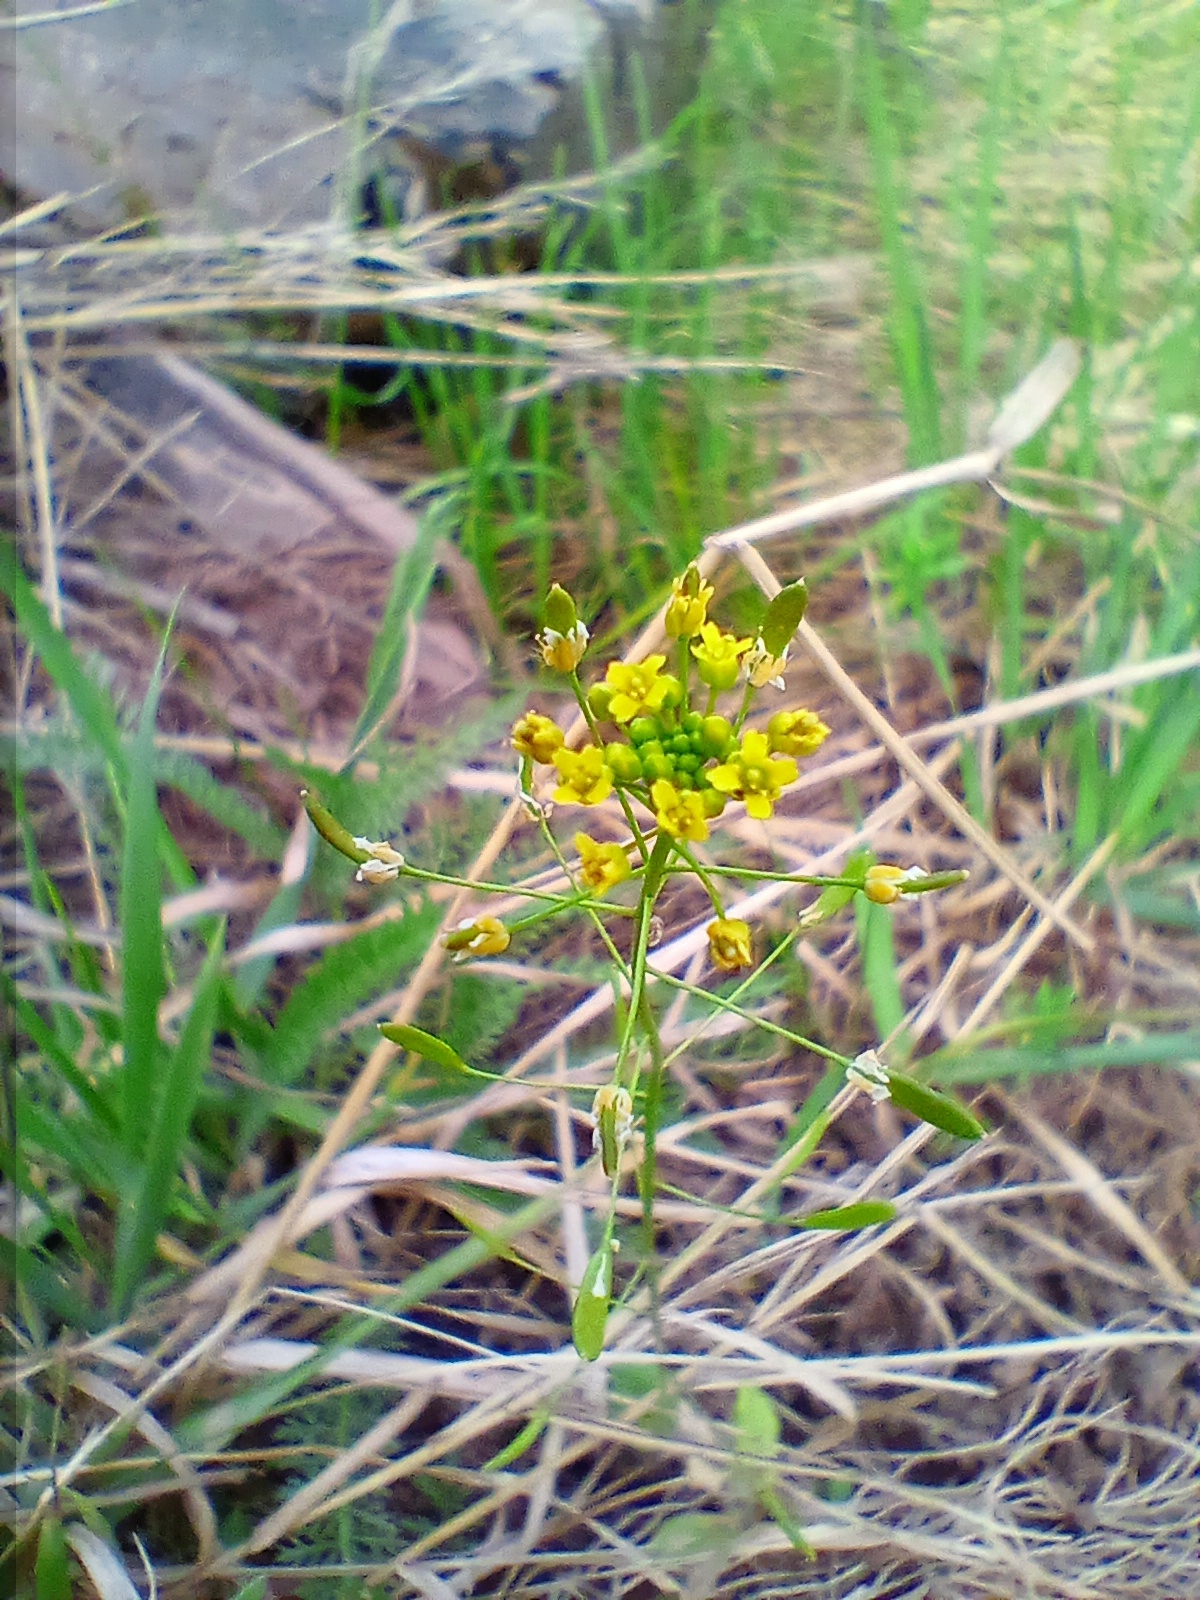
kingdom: Plantae
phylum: Tracheophyta
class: Magnoliopsida
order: Brassicales
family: Brassicaceae
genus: Draba
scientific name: Draba nemorosa
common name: Wood whitlow-grass
